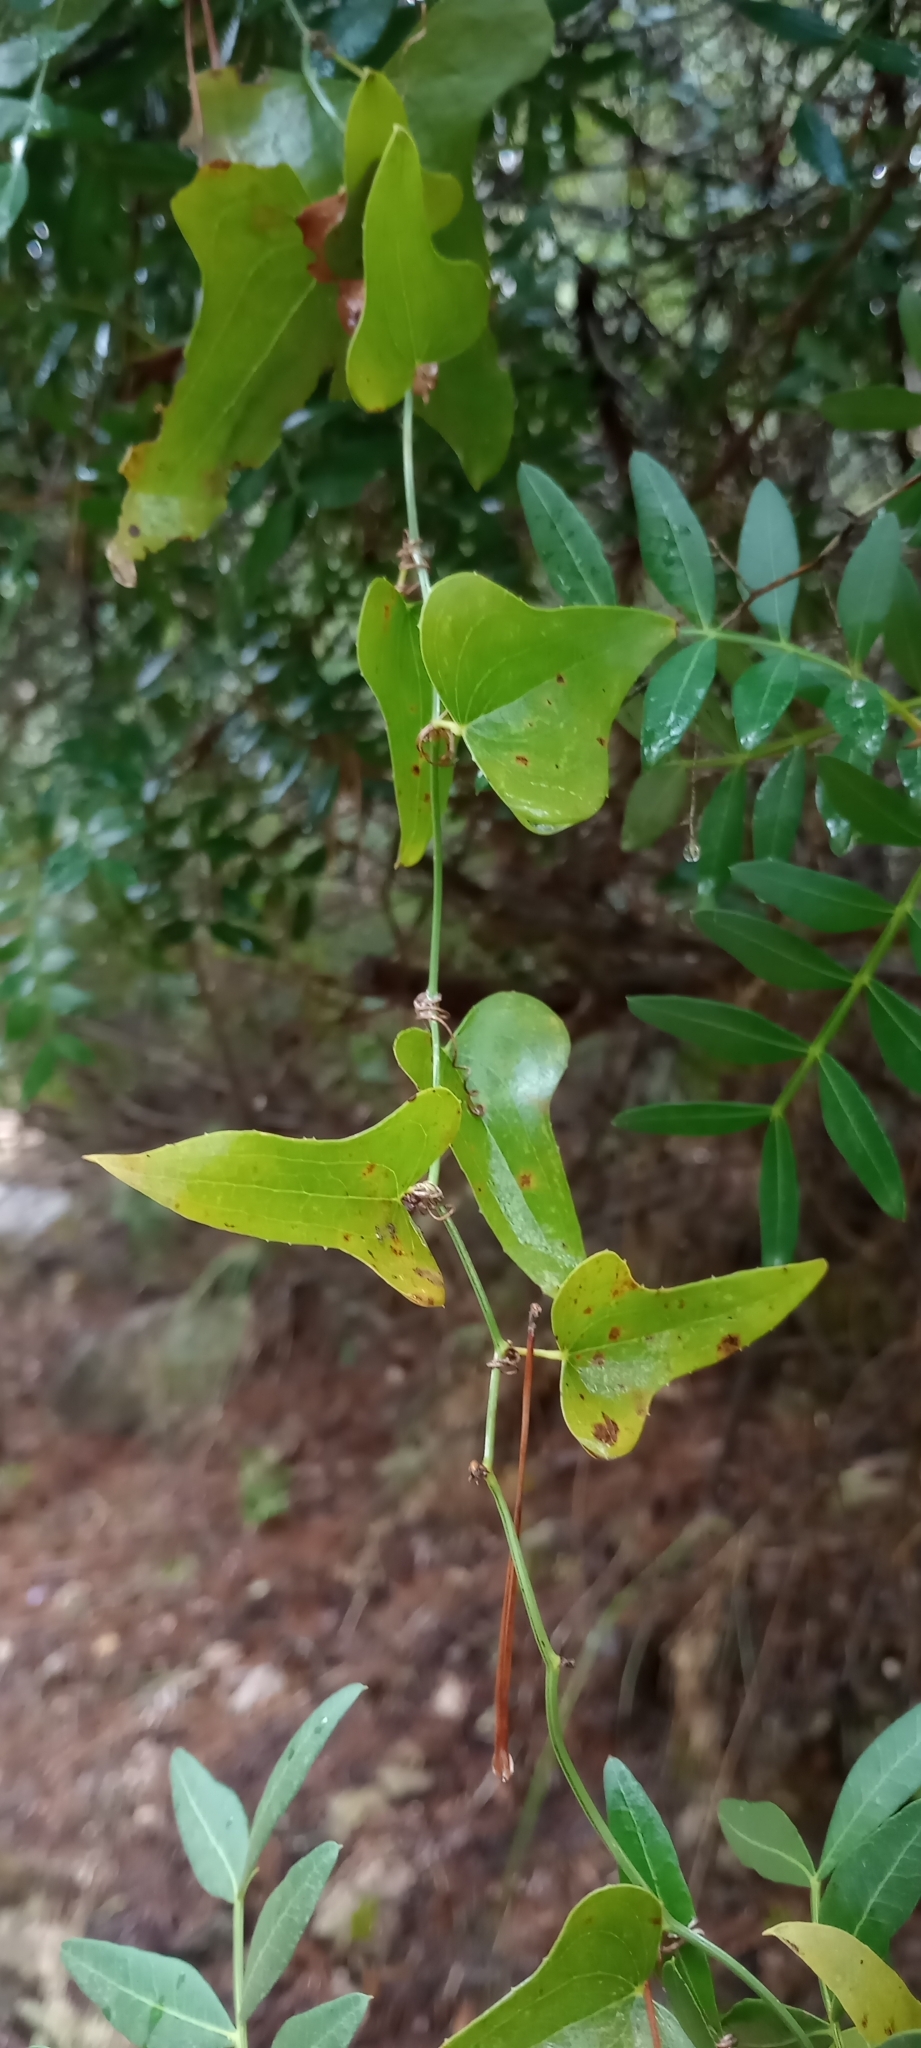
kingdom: Plantae
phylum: Tracheophyta
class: Liliopsida
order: Liliales
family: Smilacaceae
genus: Smilax
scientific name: Smilax aspera
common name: Common smilax
